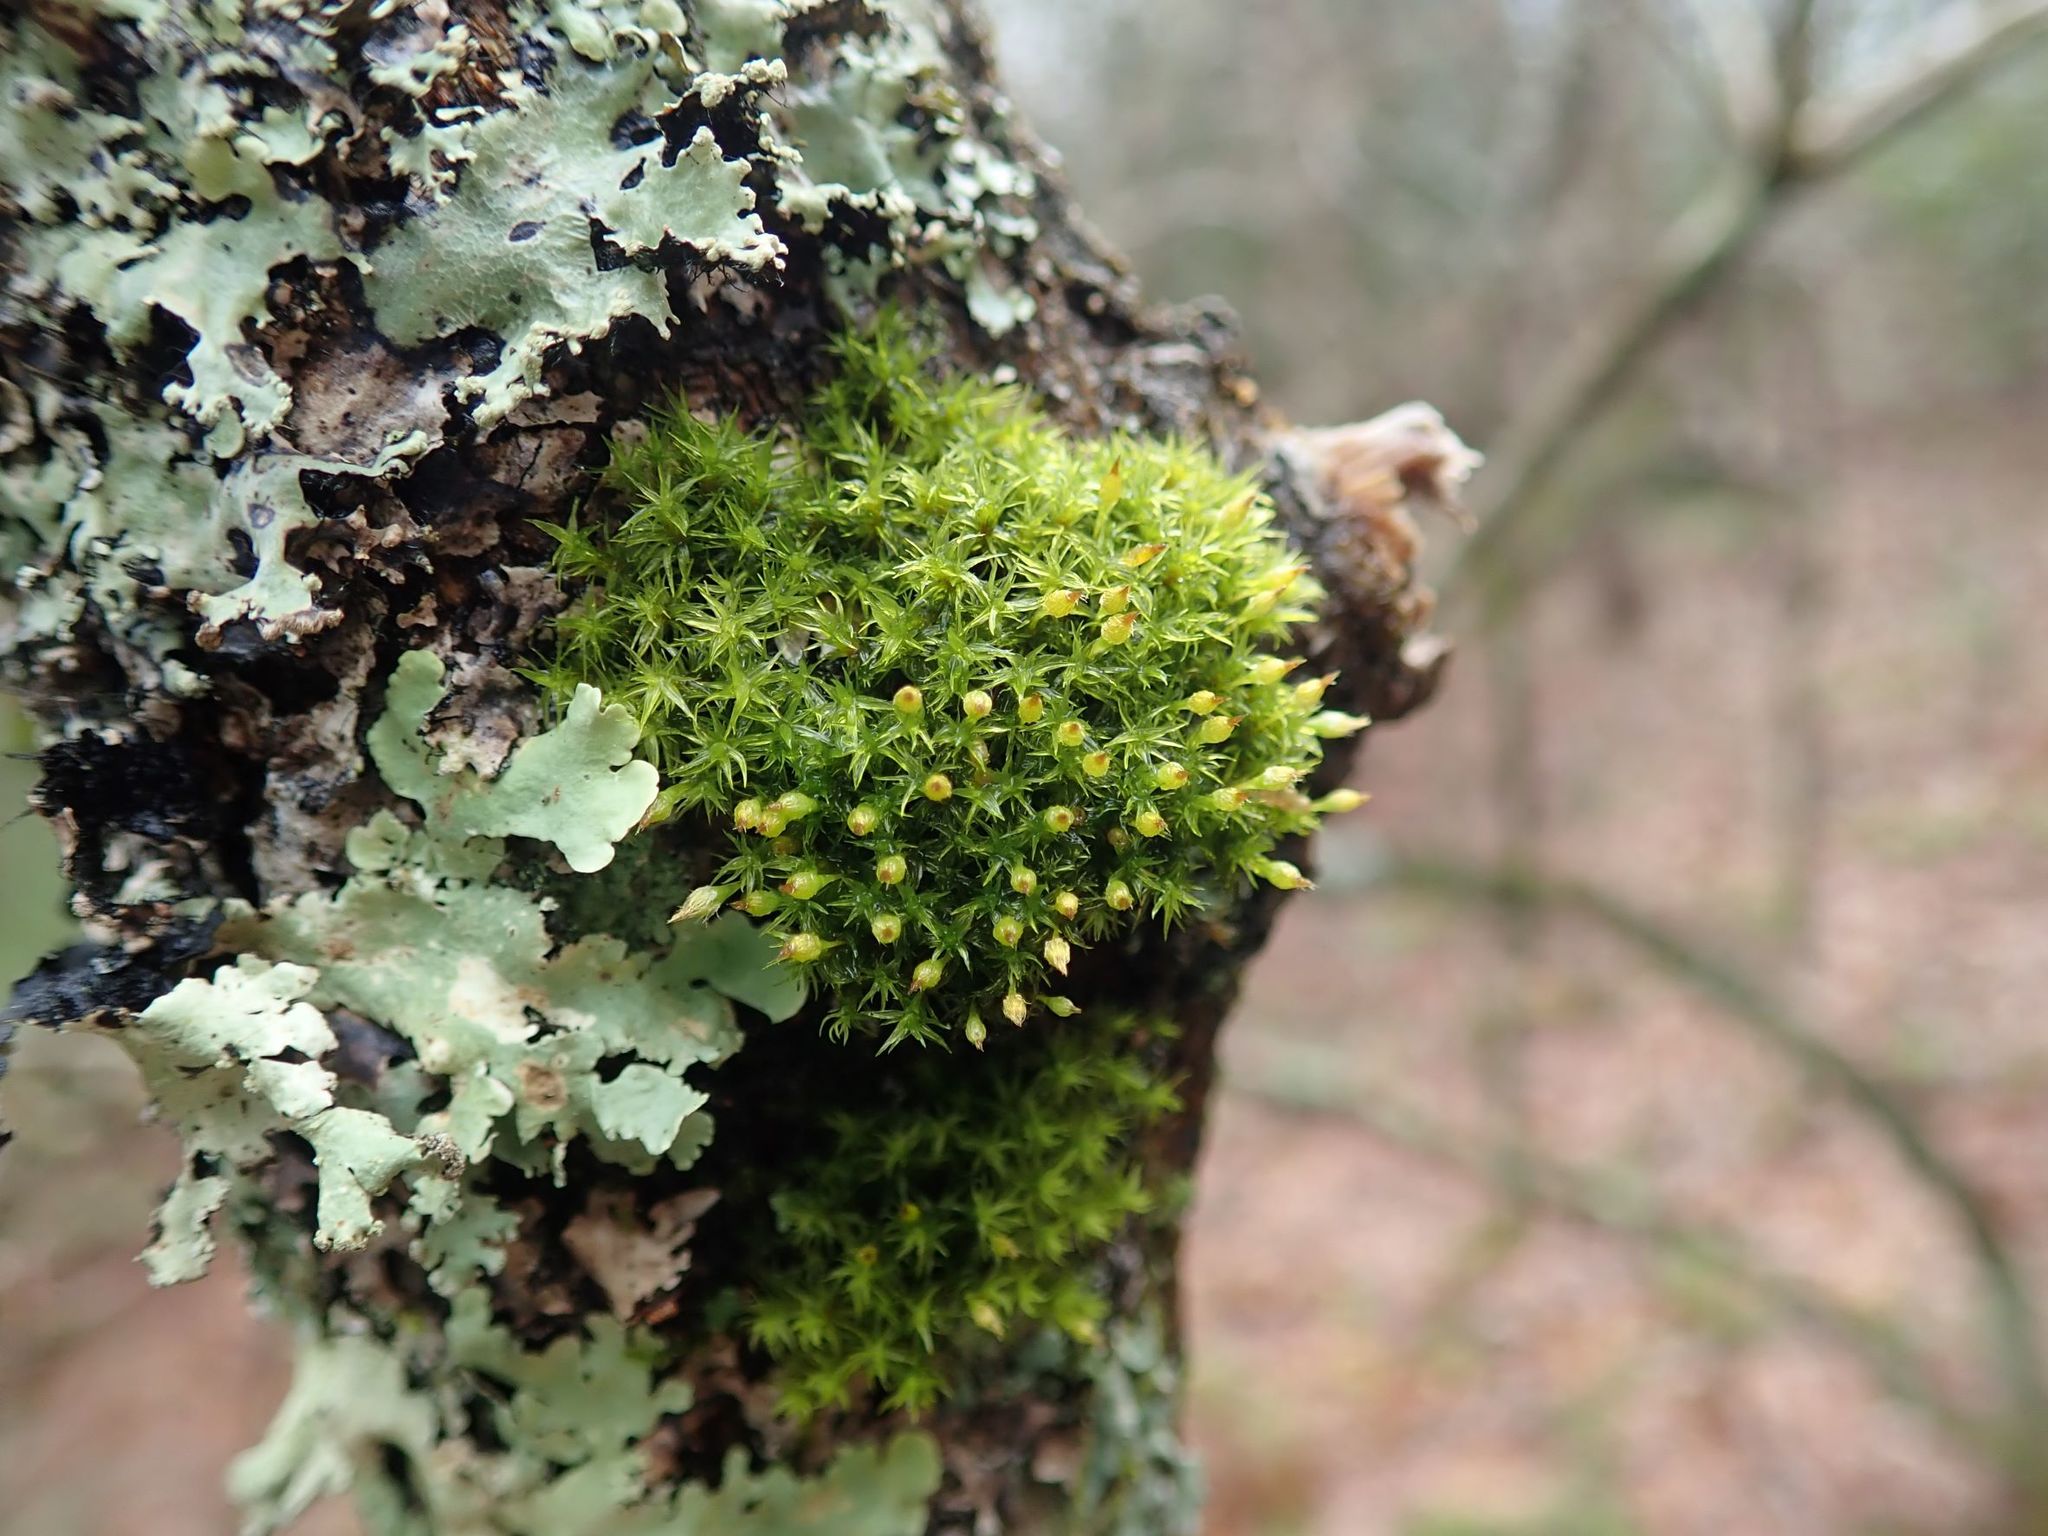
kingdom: Plantae
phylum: Bryophyta
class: Bryopsida
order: Orthotrichales
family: Orthotrichaceae
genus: Ulota
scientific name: Ulota crispa
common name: Crisped pincushion moss
